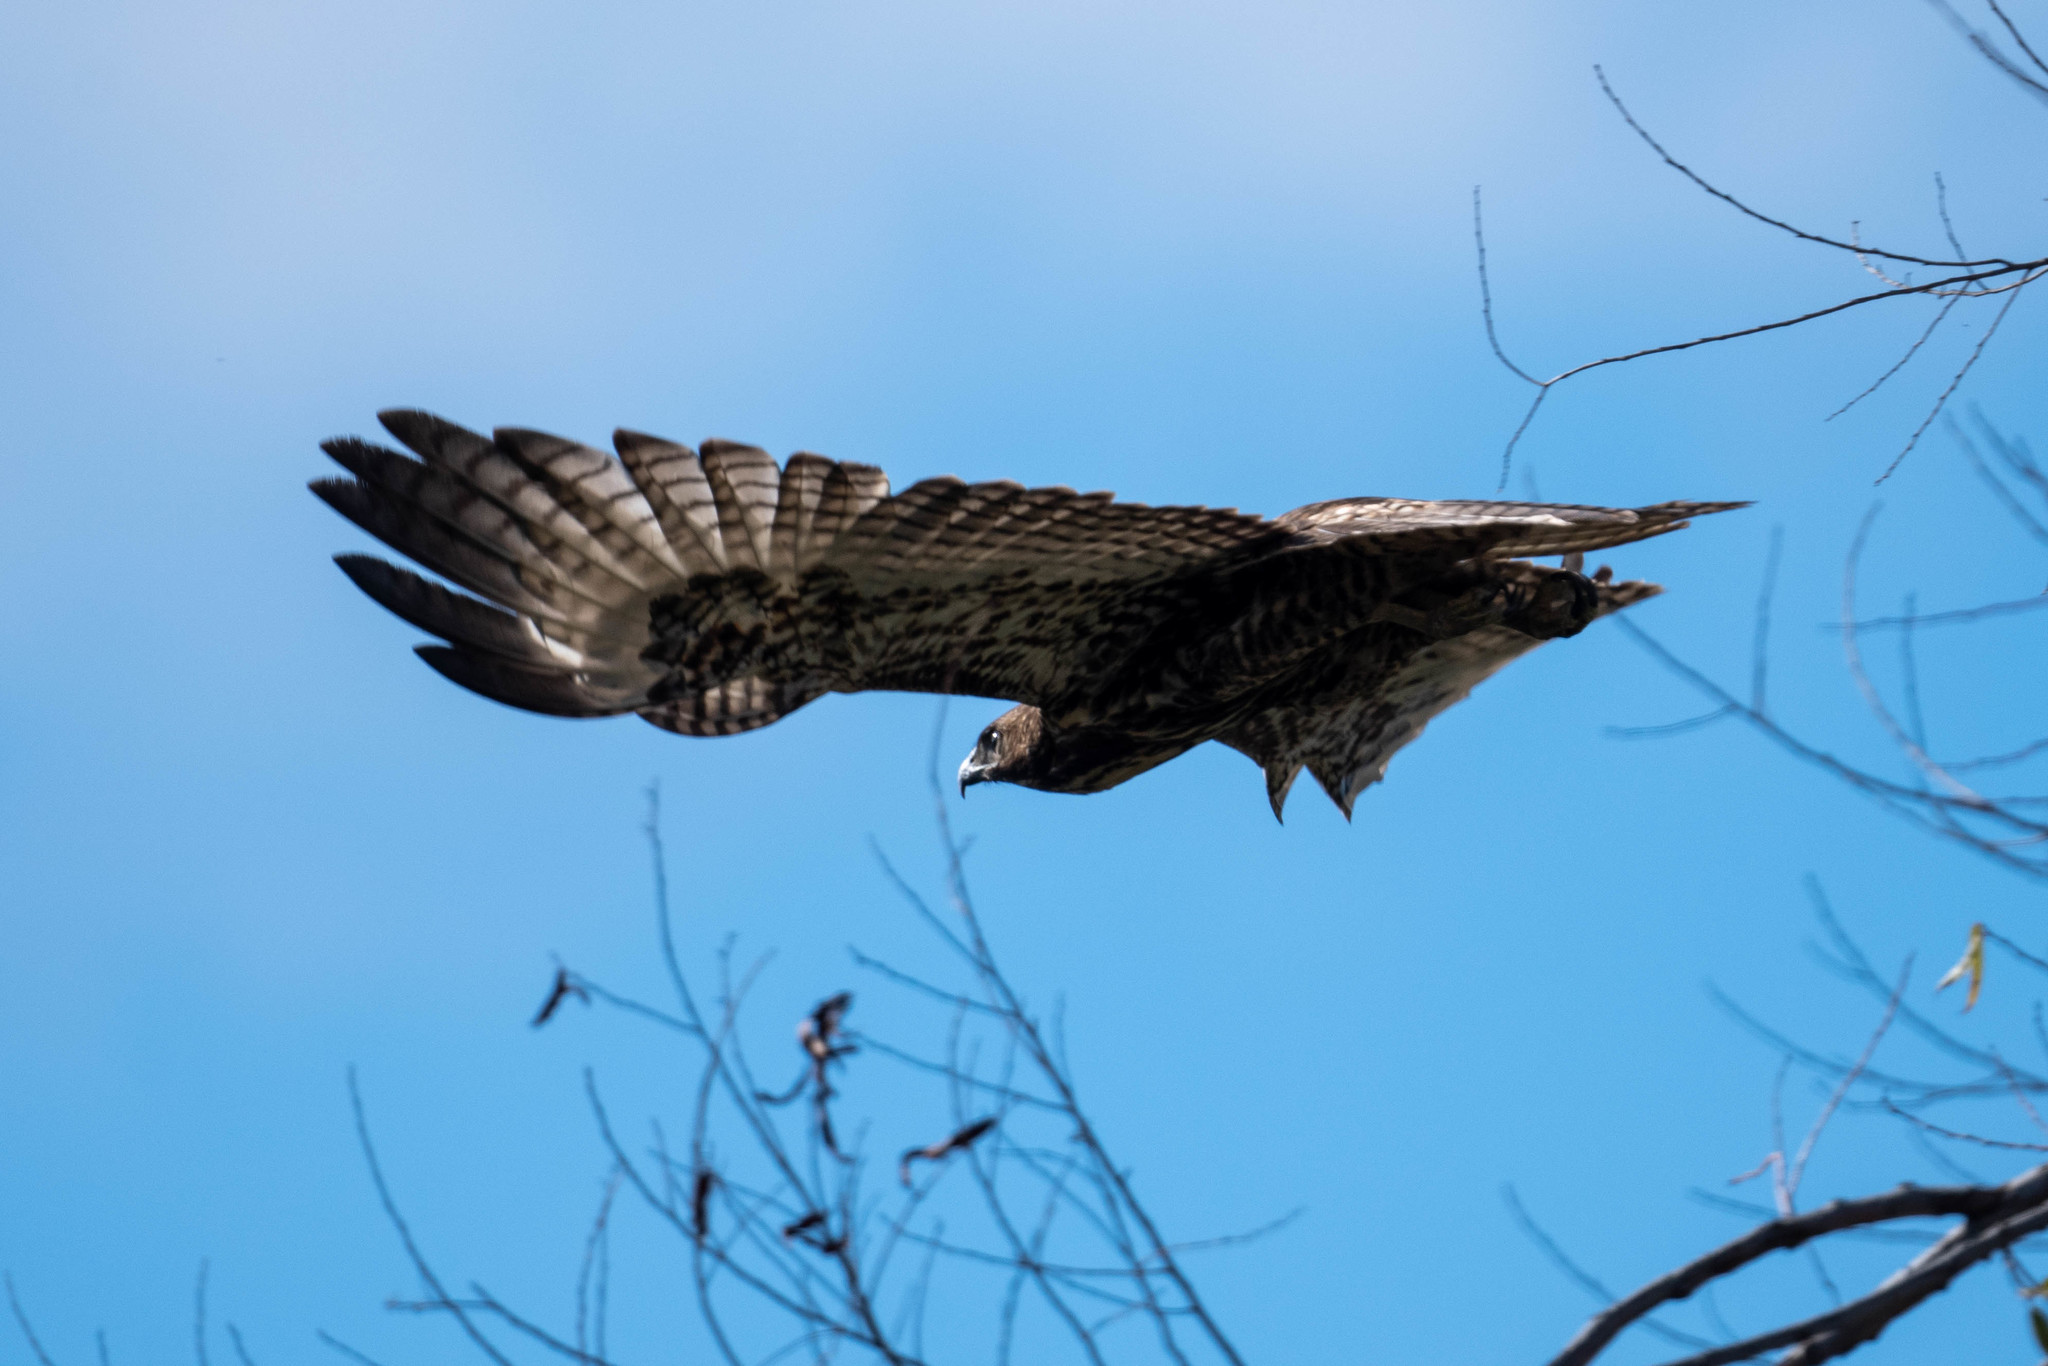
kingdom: Animalia
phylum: Chordata
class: Aves
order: Accipitriformes
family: Accipitridae
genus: Buteo
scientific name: Buteo lineatus
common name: Red-shouldered hawk
